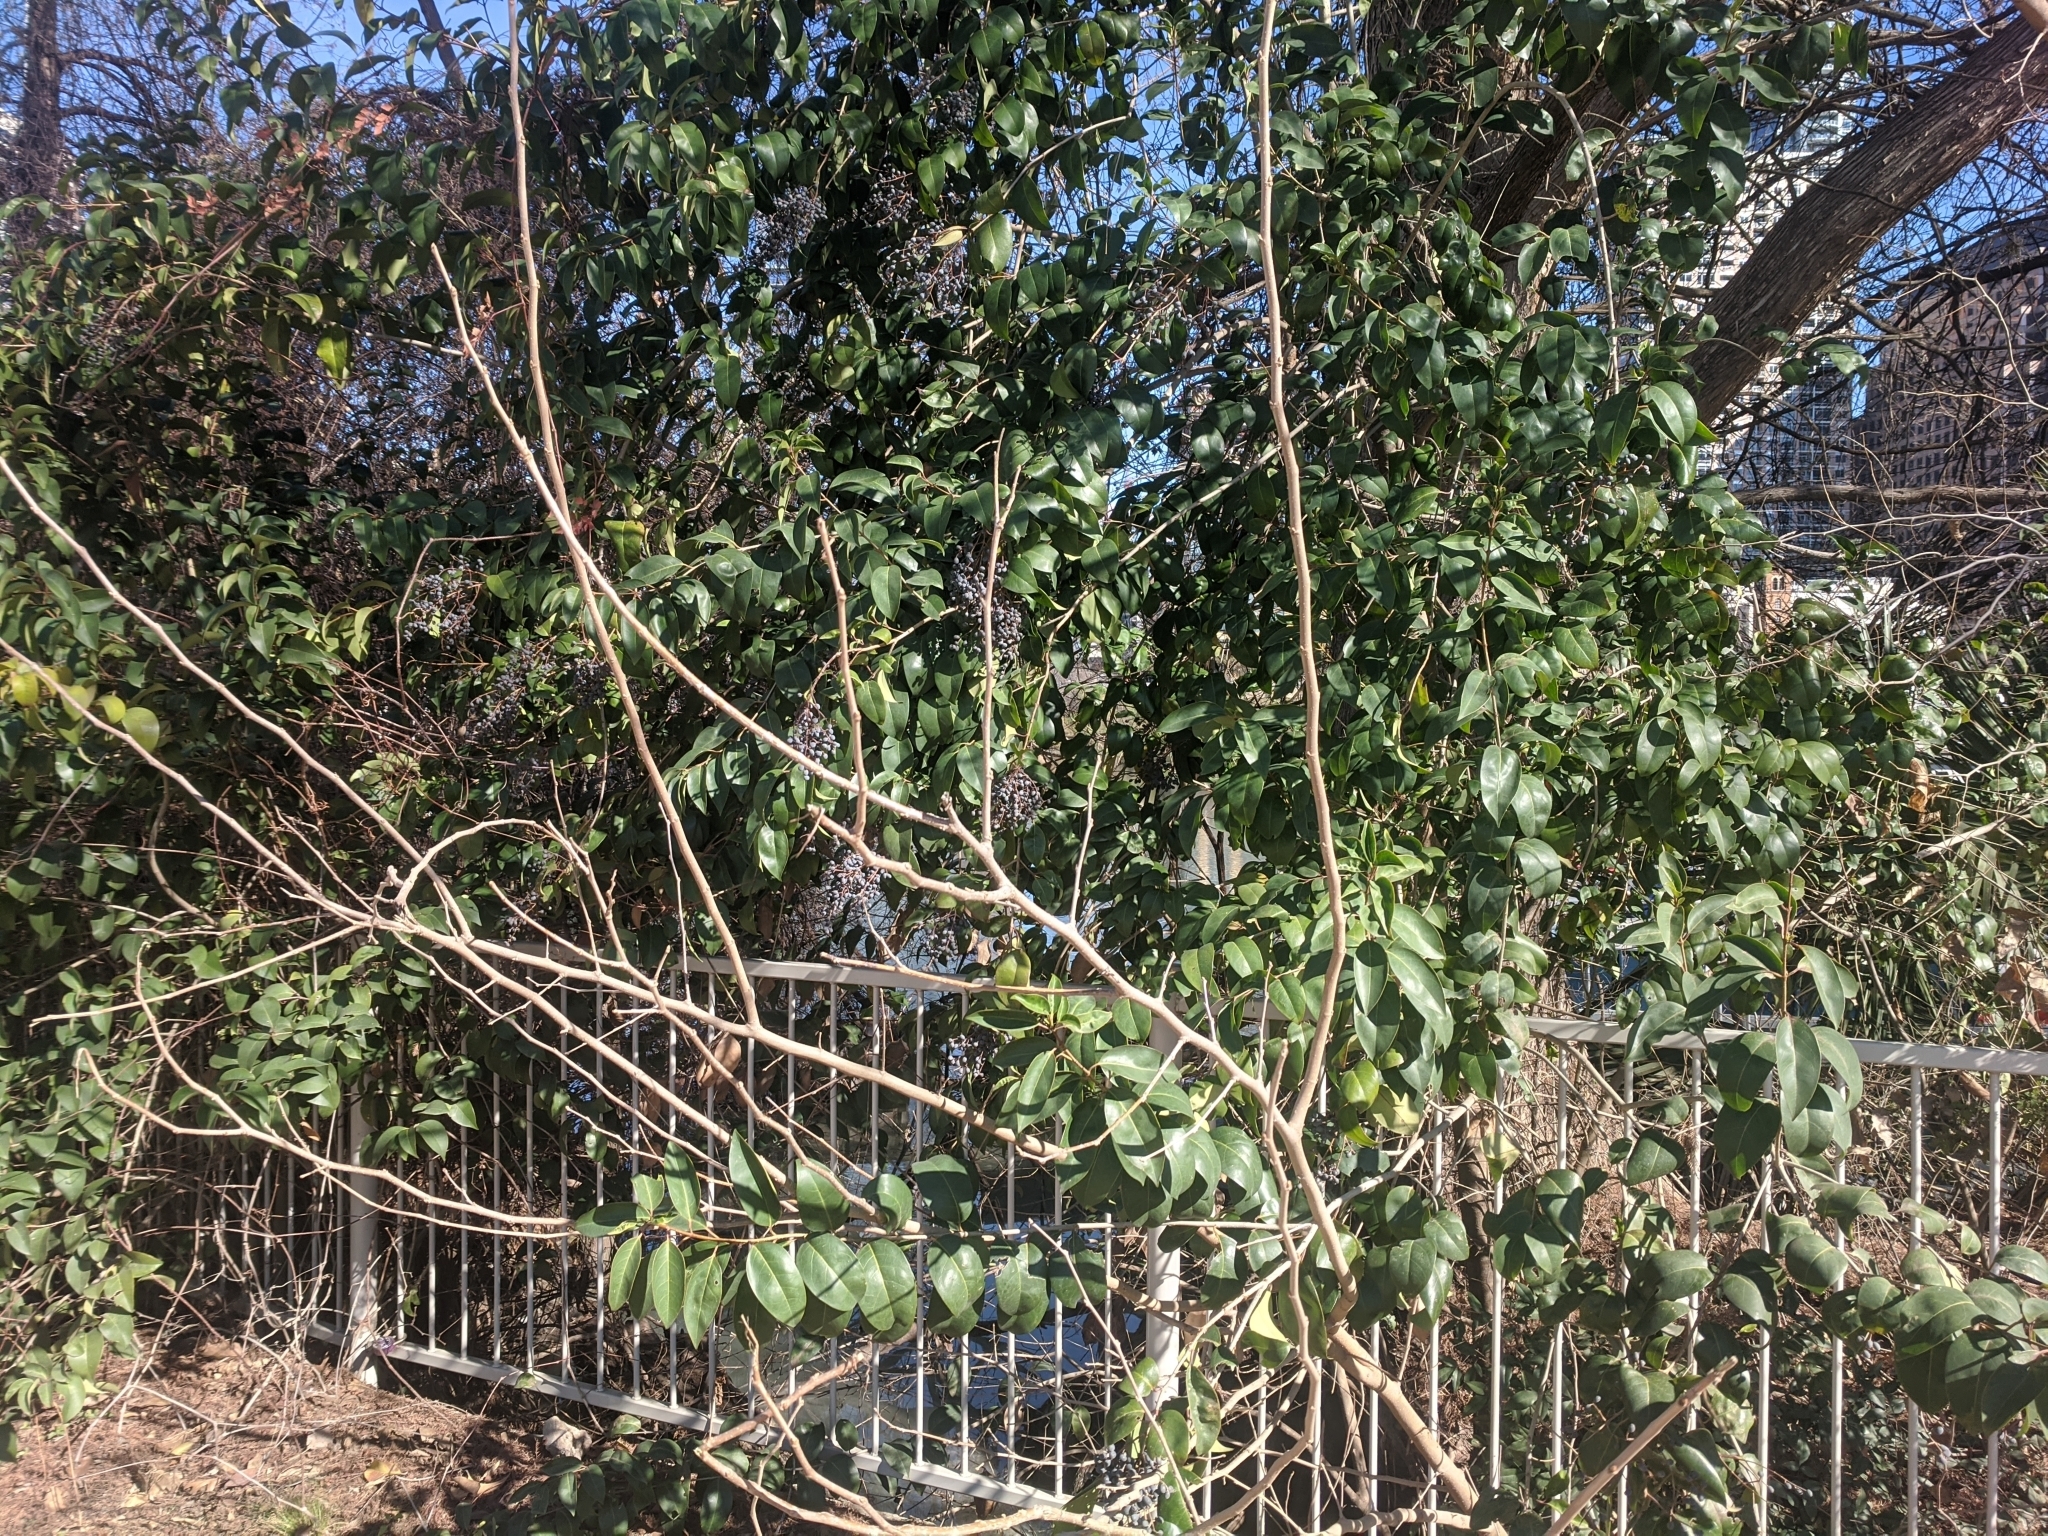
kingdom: Plantae
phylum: Tracheophyta
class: Magnoliopsida
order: Lamiales
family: Oleaceae
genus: Ligustrum
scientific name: Ligustrum lucidum
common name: Glossy privet
